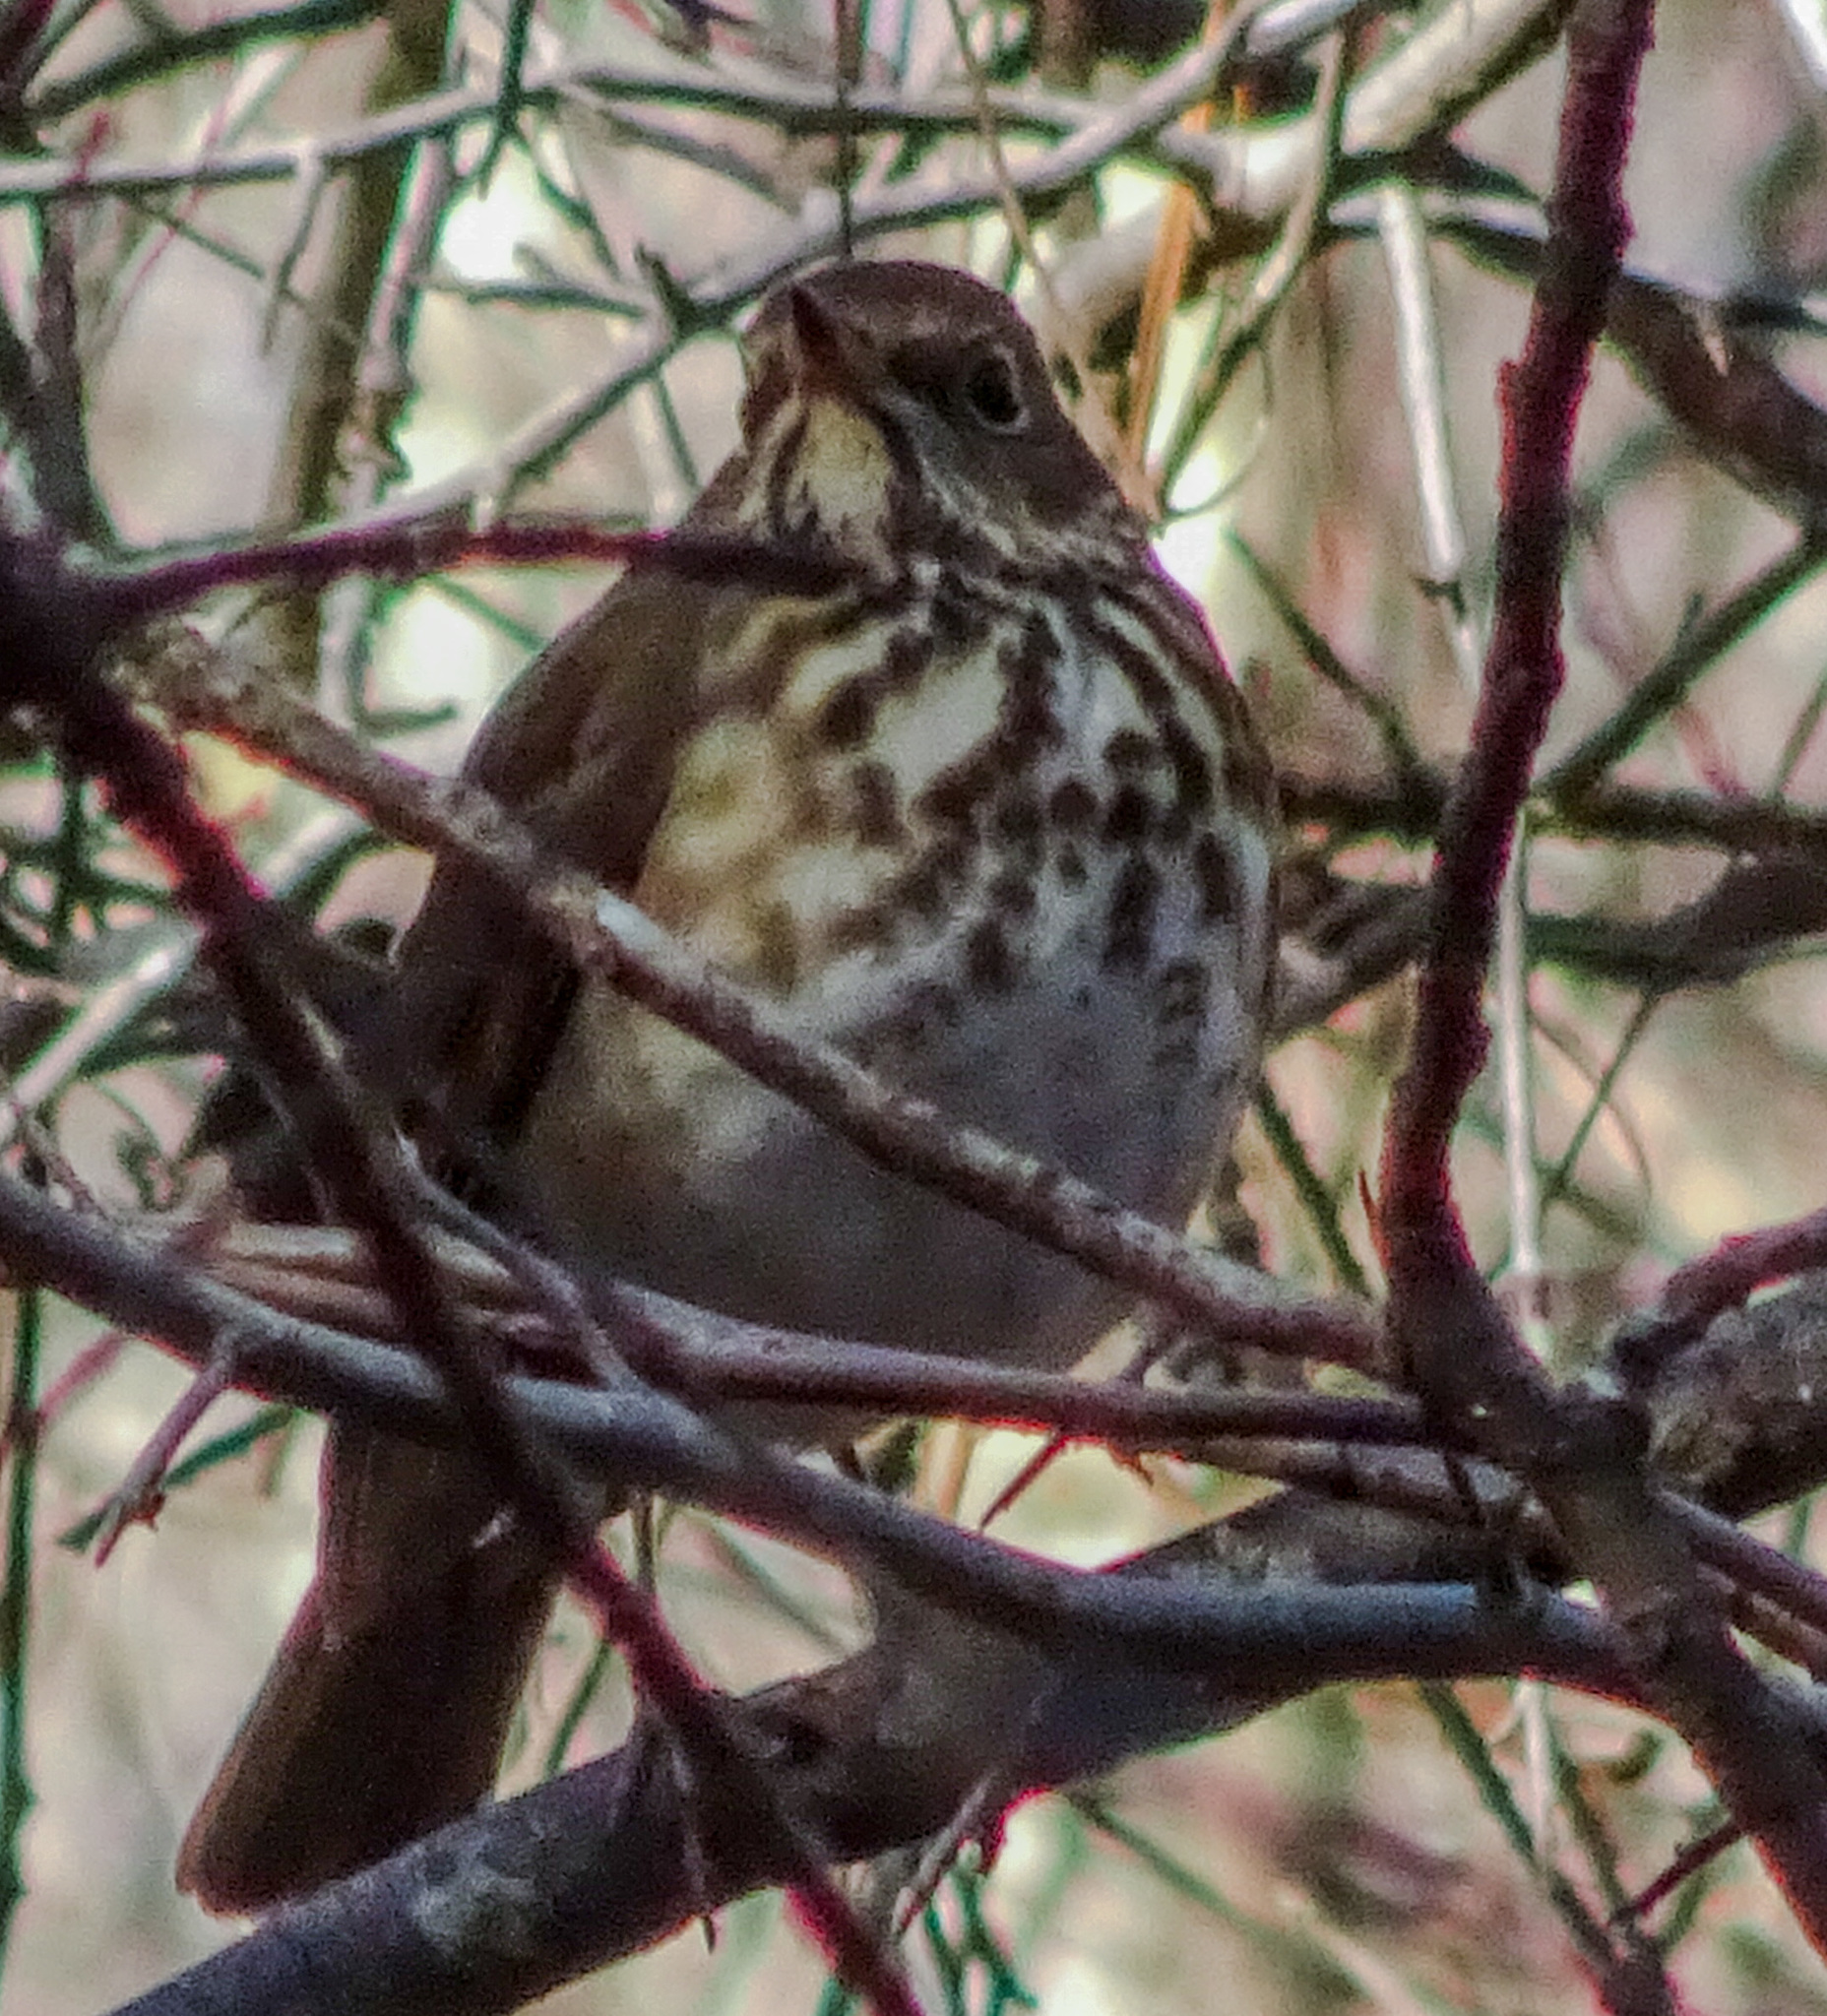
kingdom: Animalia
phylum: Chordata
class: Aves
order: Passeriformes
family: Turdidae
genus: Catharus
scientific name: Catharus guttatus
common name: Hermit thrush
